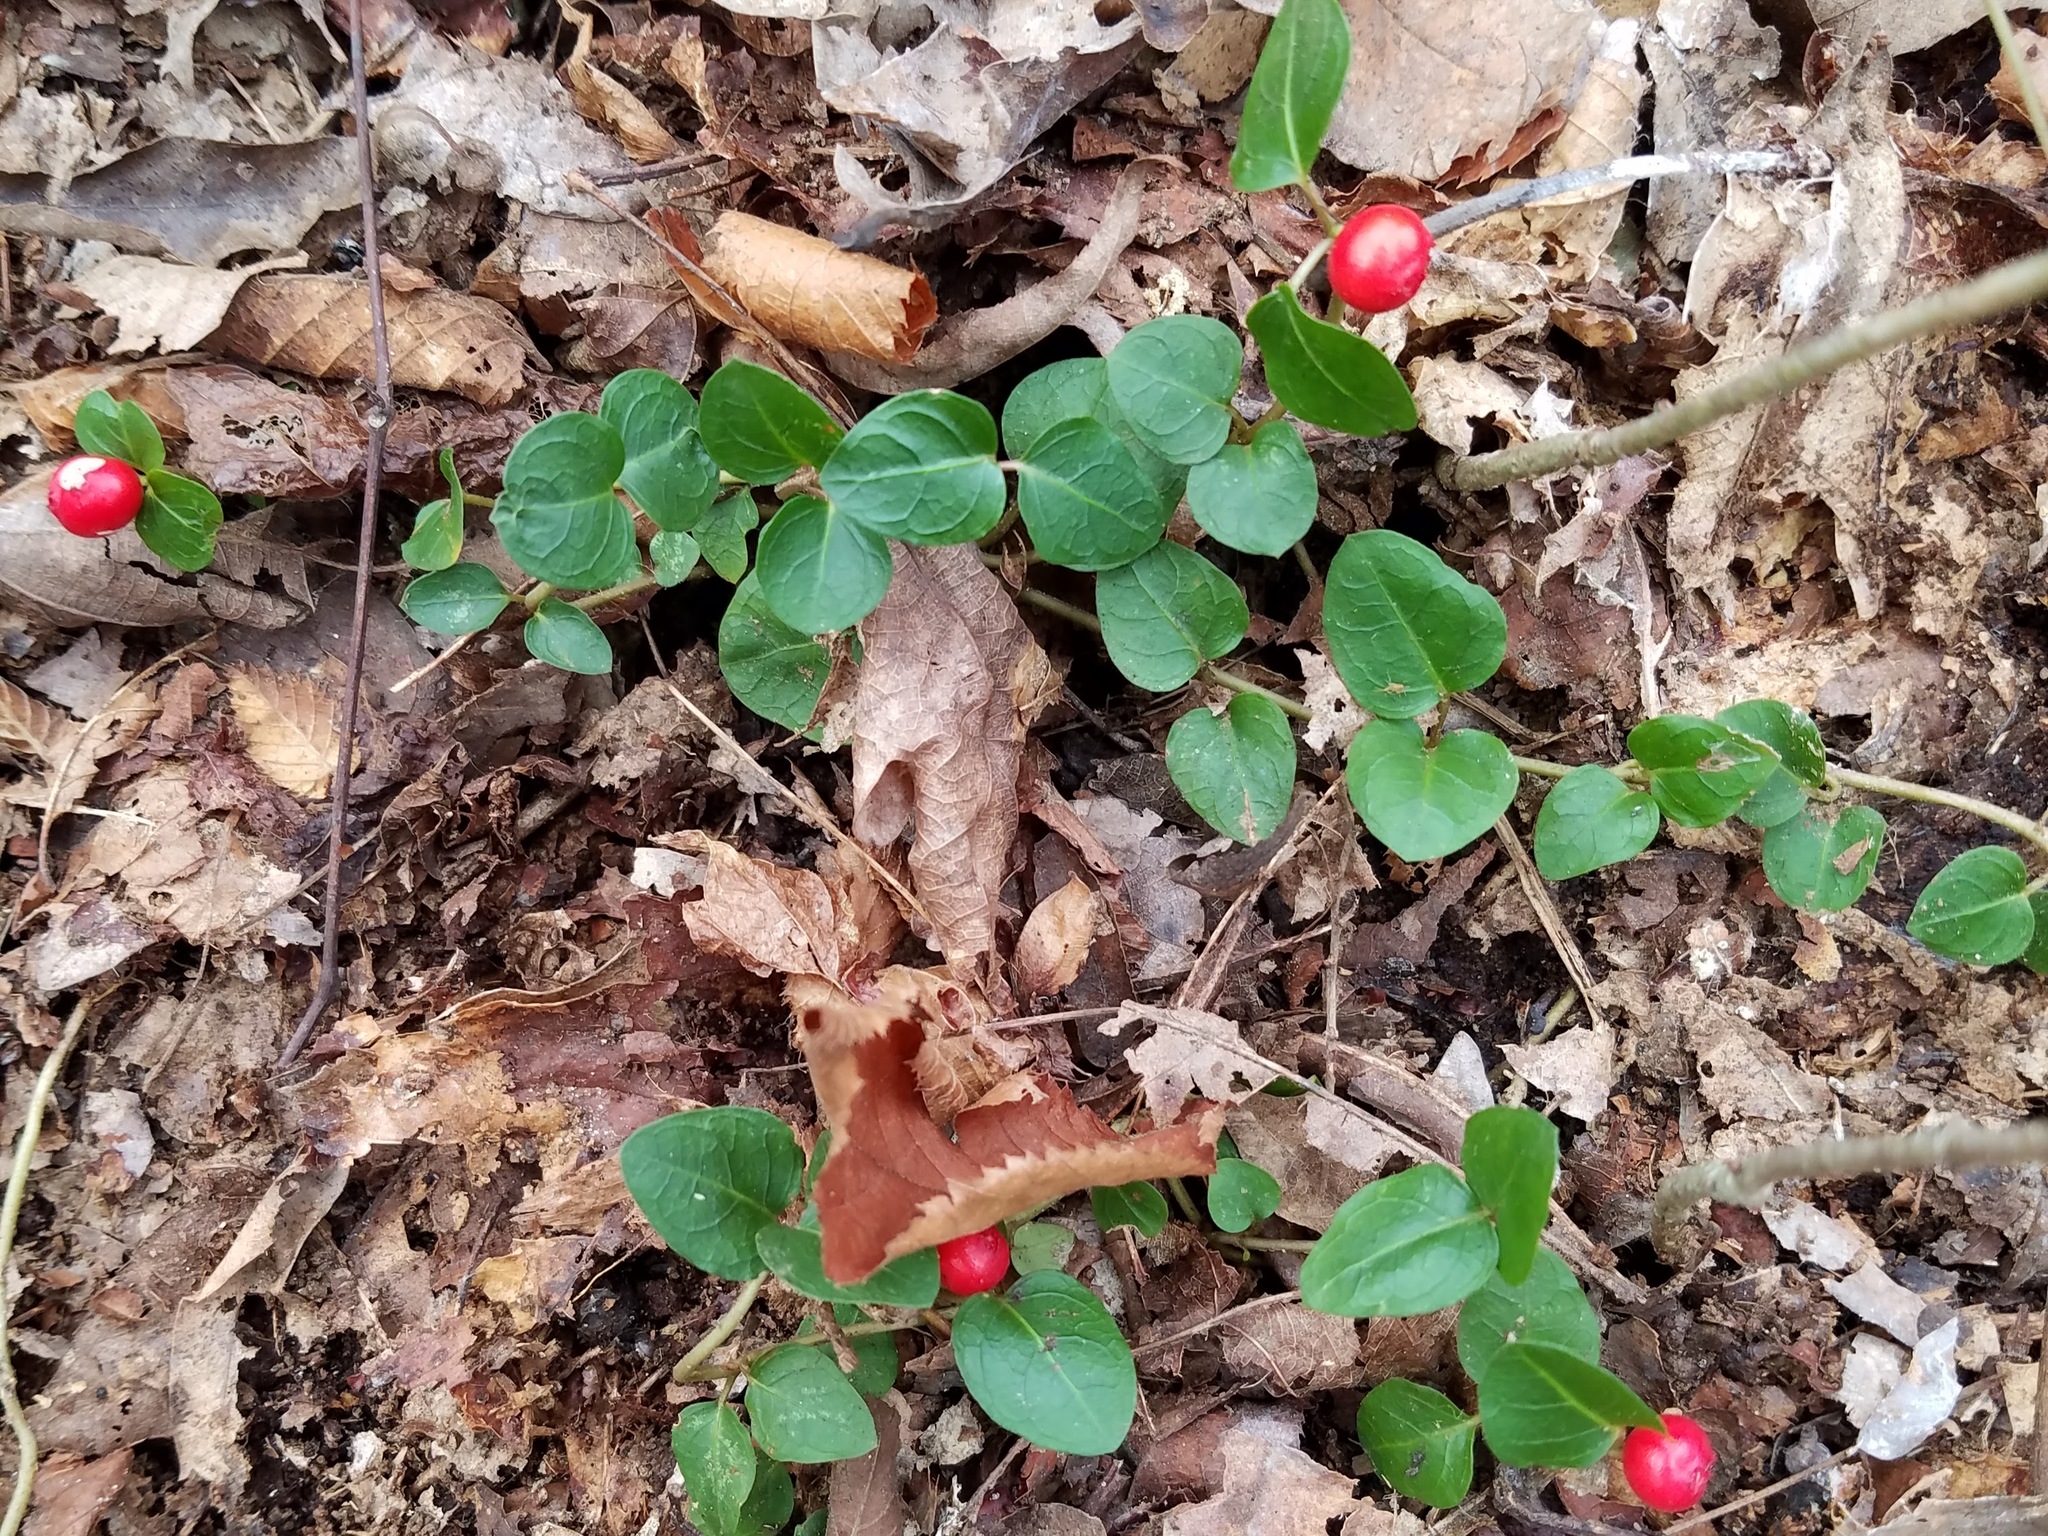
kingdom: Plantae
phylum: Tracheophyta
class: Magnoliopsida
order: Gentianales
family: Rubiaceae
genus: Mitchella
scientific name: Mitchella repens
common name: Partridge-berry
